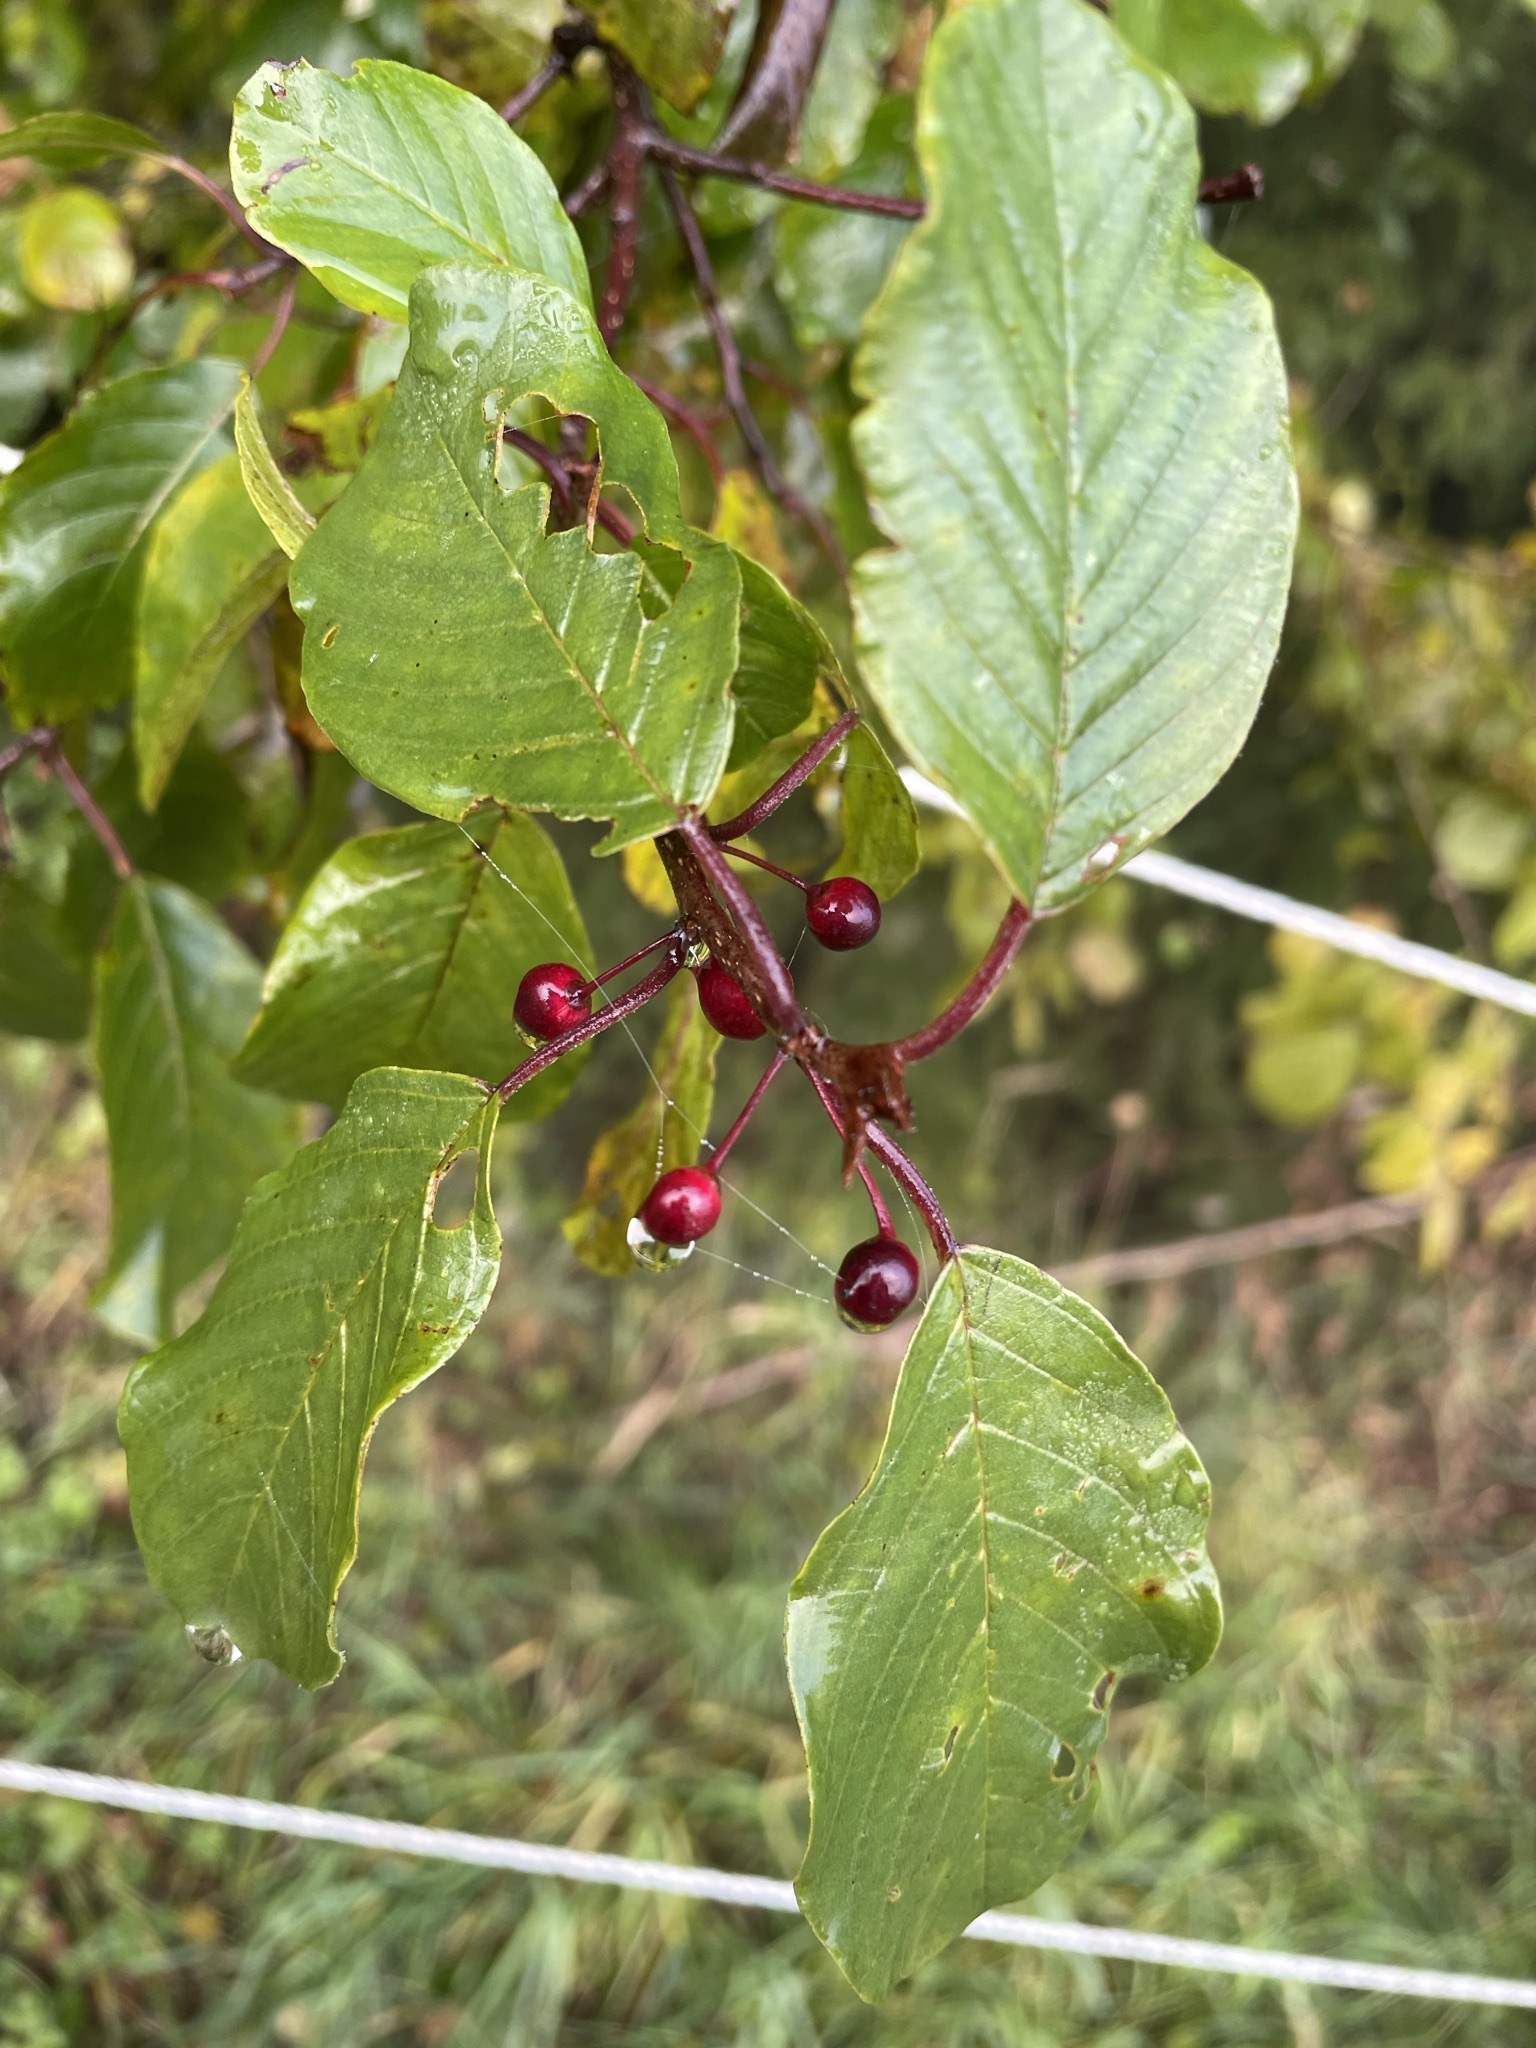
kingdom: Plantae
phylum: Tracheophyta
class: Magnoliopsida
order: Rosales
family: Rhamnaceae
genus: Frangula
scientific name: Frangula alnus
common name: Alder buckthorn
